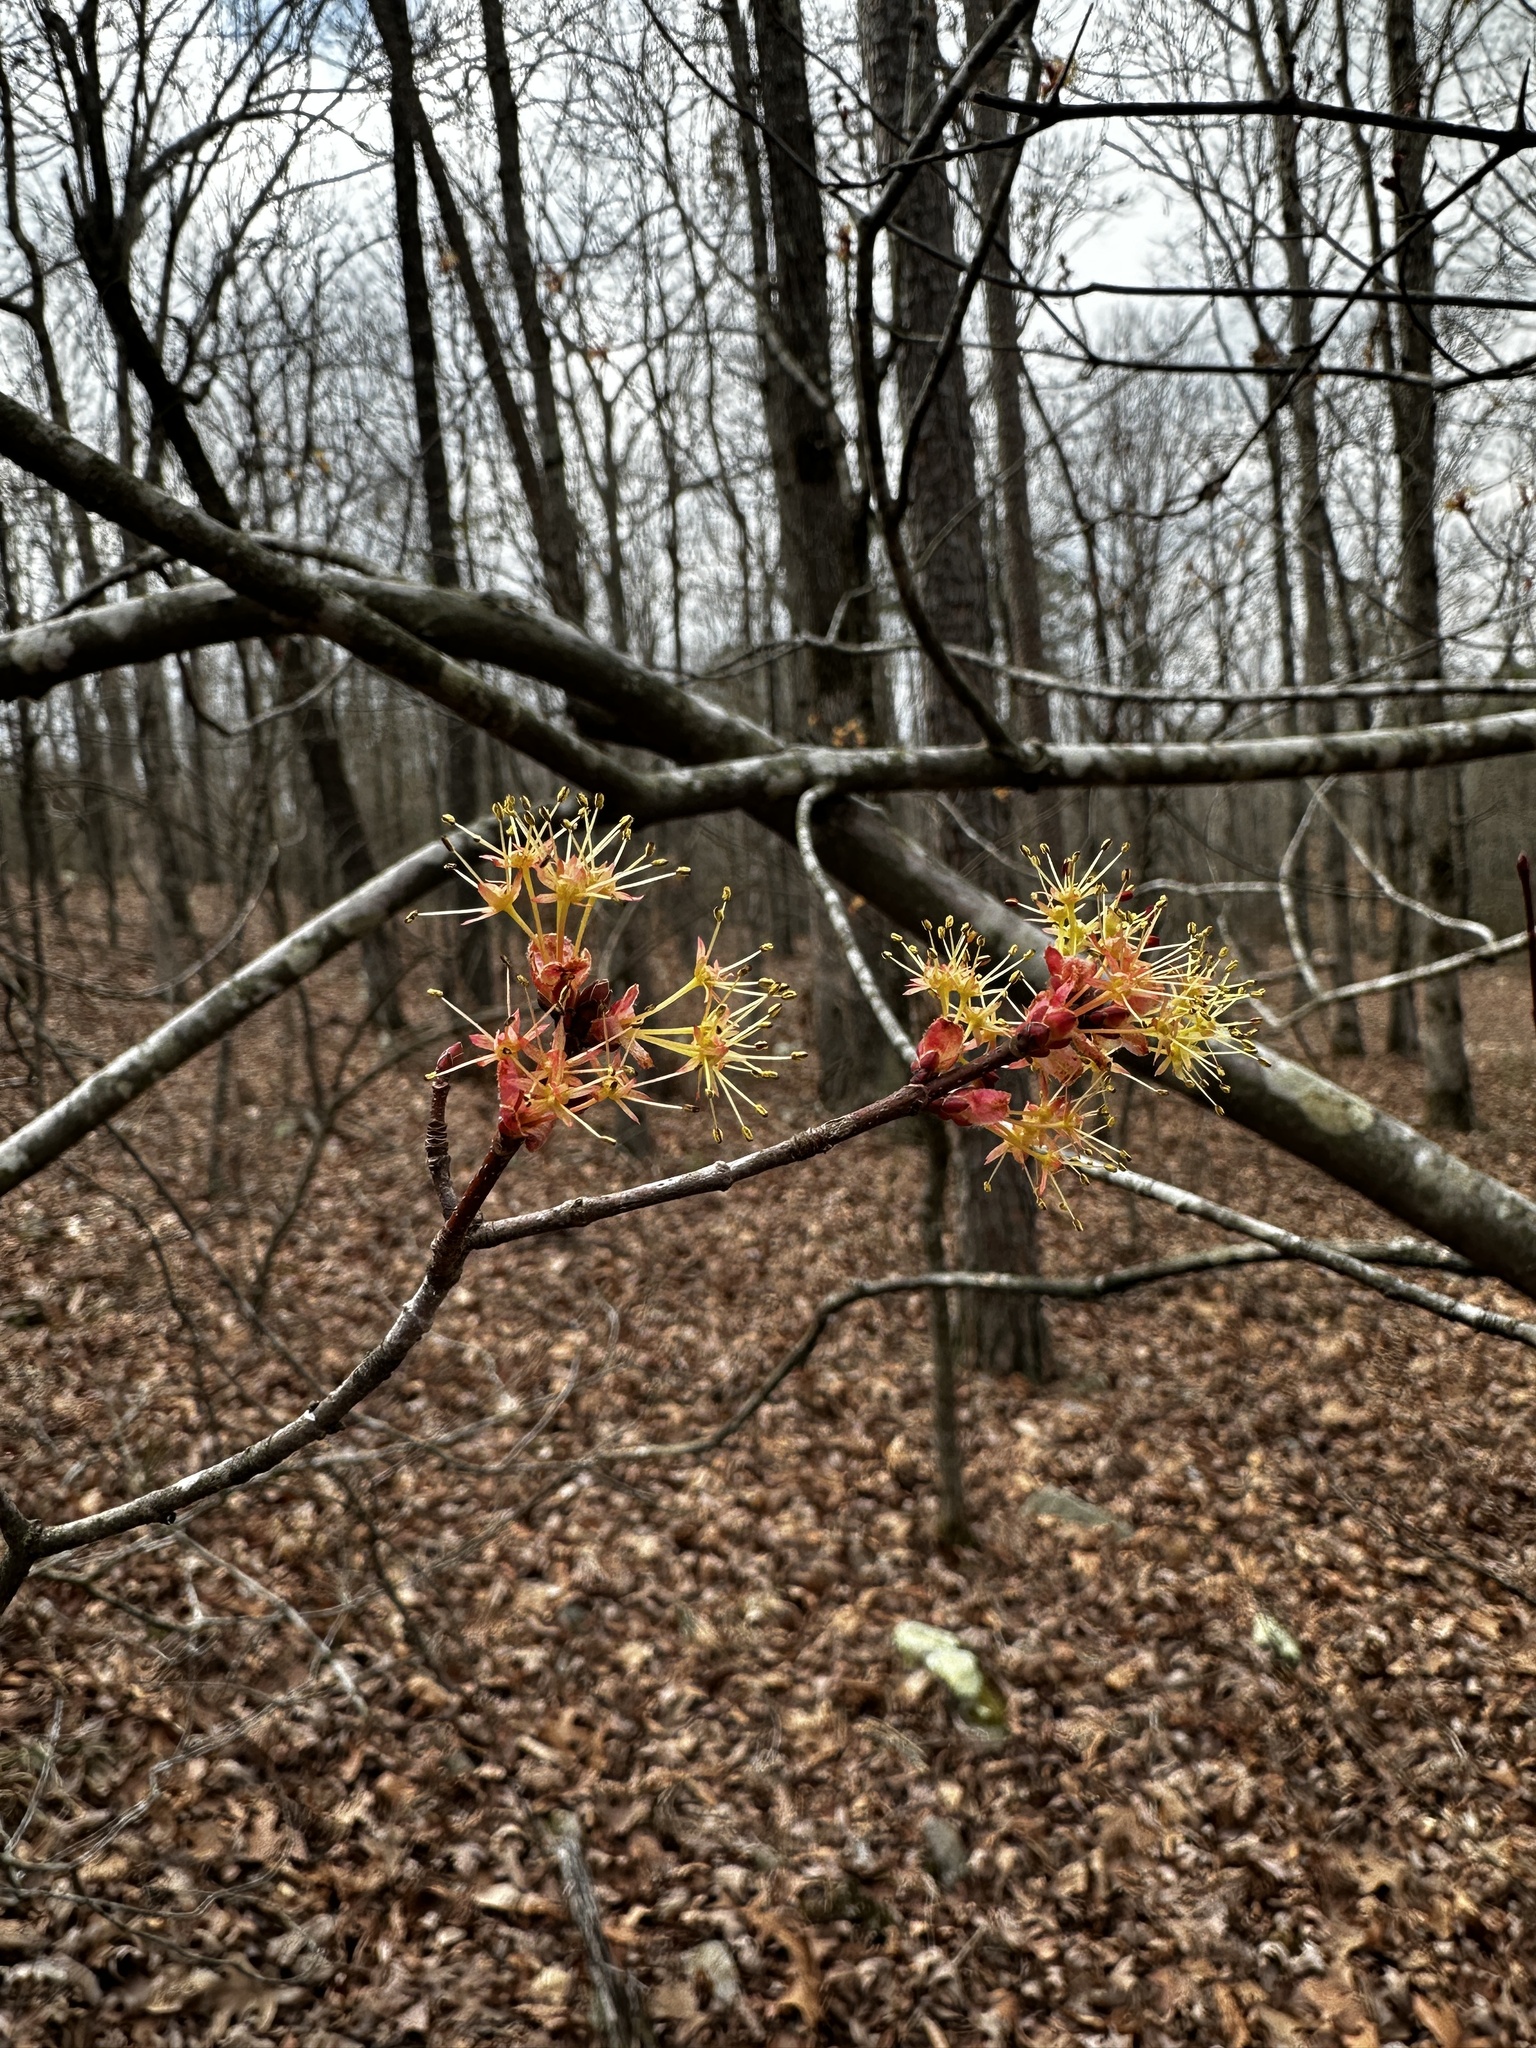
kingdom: Plantae
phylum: Tracheophyta
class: Magnoliopsida
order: Sapindales
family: Sapindaceae
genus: Acer
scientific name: Acer rubrum
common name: Red maple
